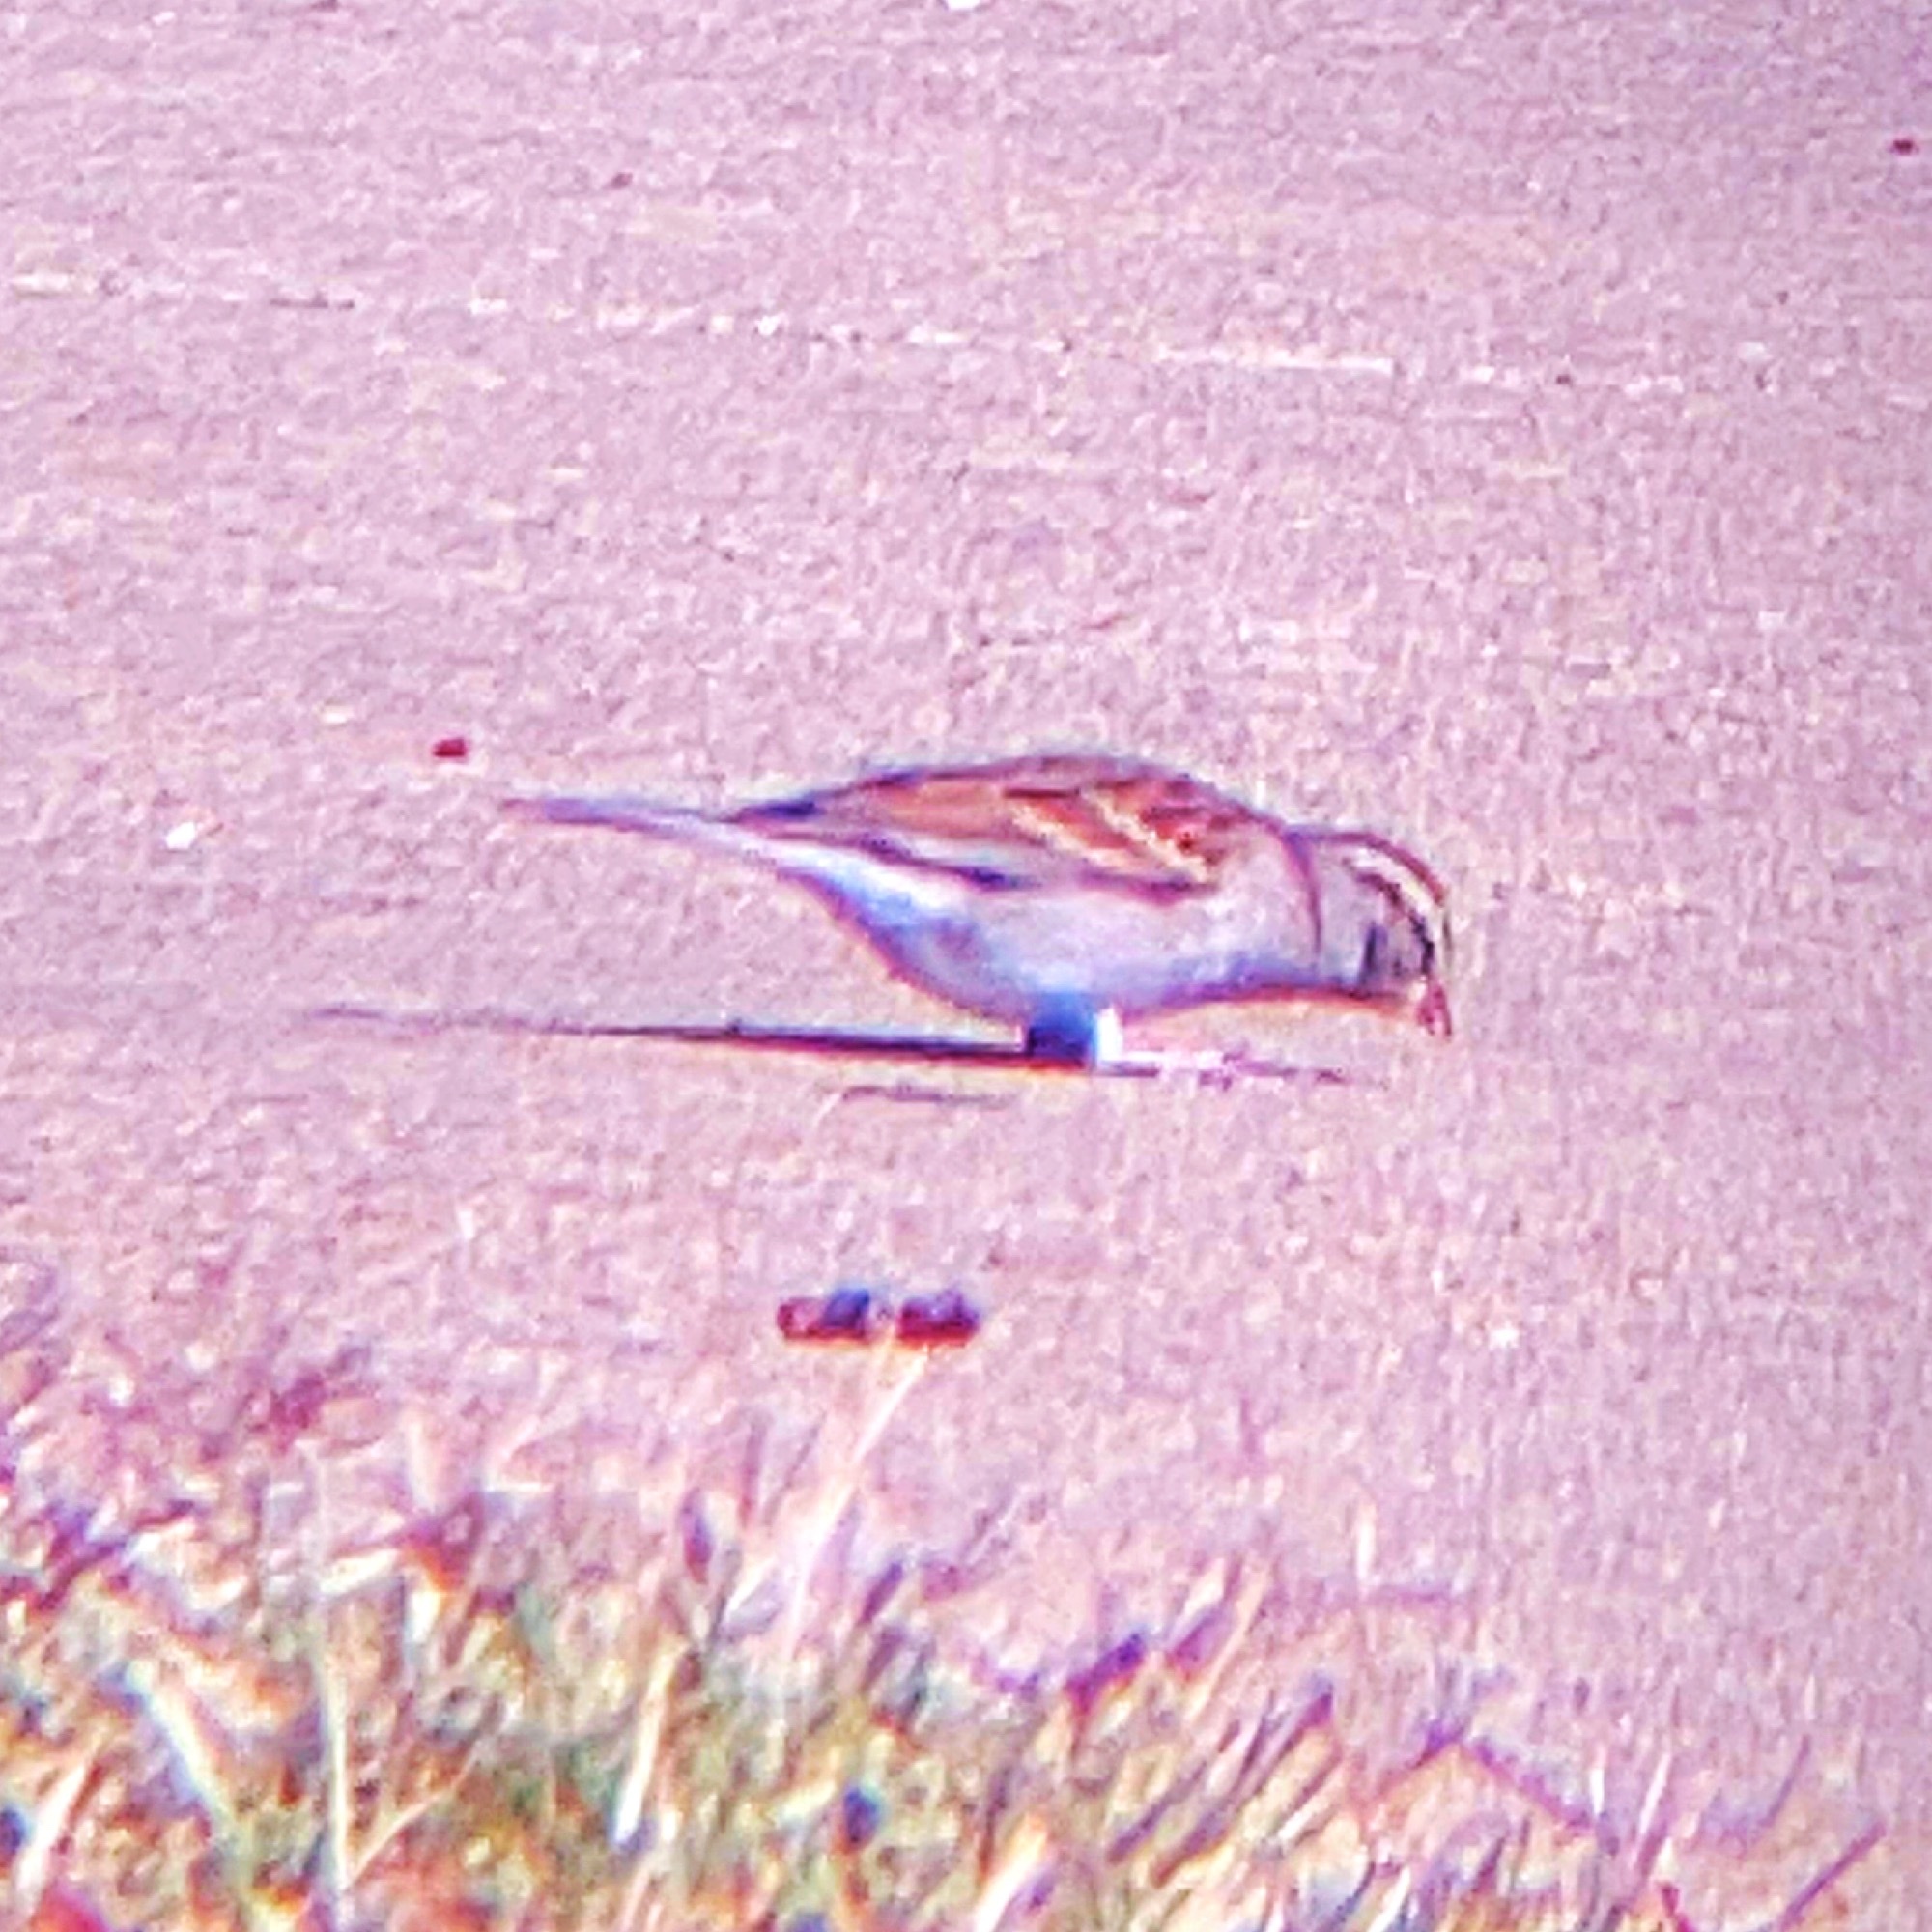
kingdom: Animalia
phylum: Chordata
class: Aves
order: Passeriformes
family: Passerellidae
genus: Spizella
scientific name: Spizella passerina
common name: Chipping sparrow
